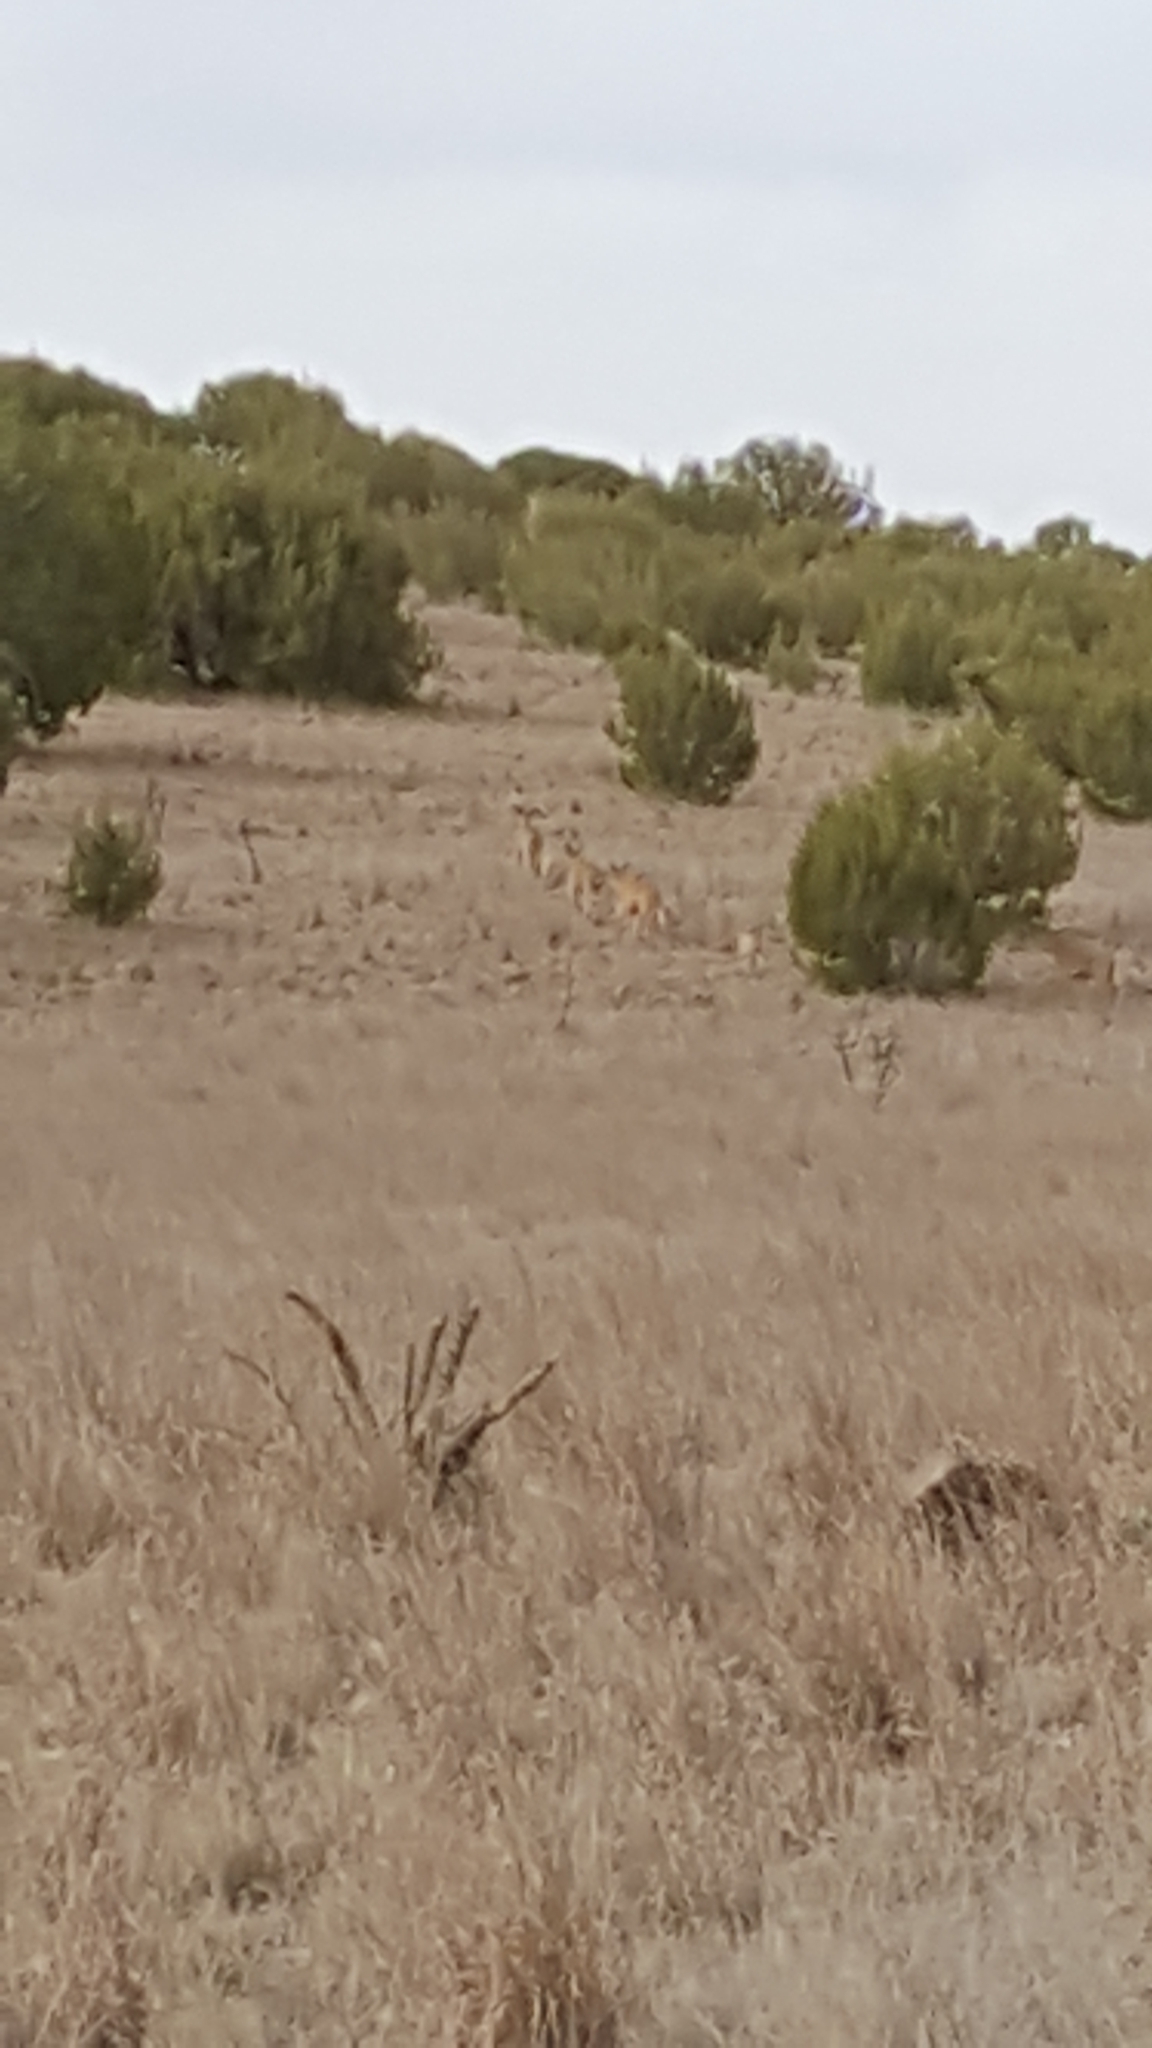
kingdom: Animalia
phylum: Chordata
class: Mammalia
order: Artiodactyla
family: Bovidae
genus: Ammotragus
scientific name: Ammotragus lervia
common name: Barbary sheep
